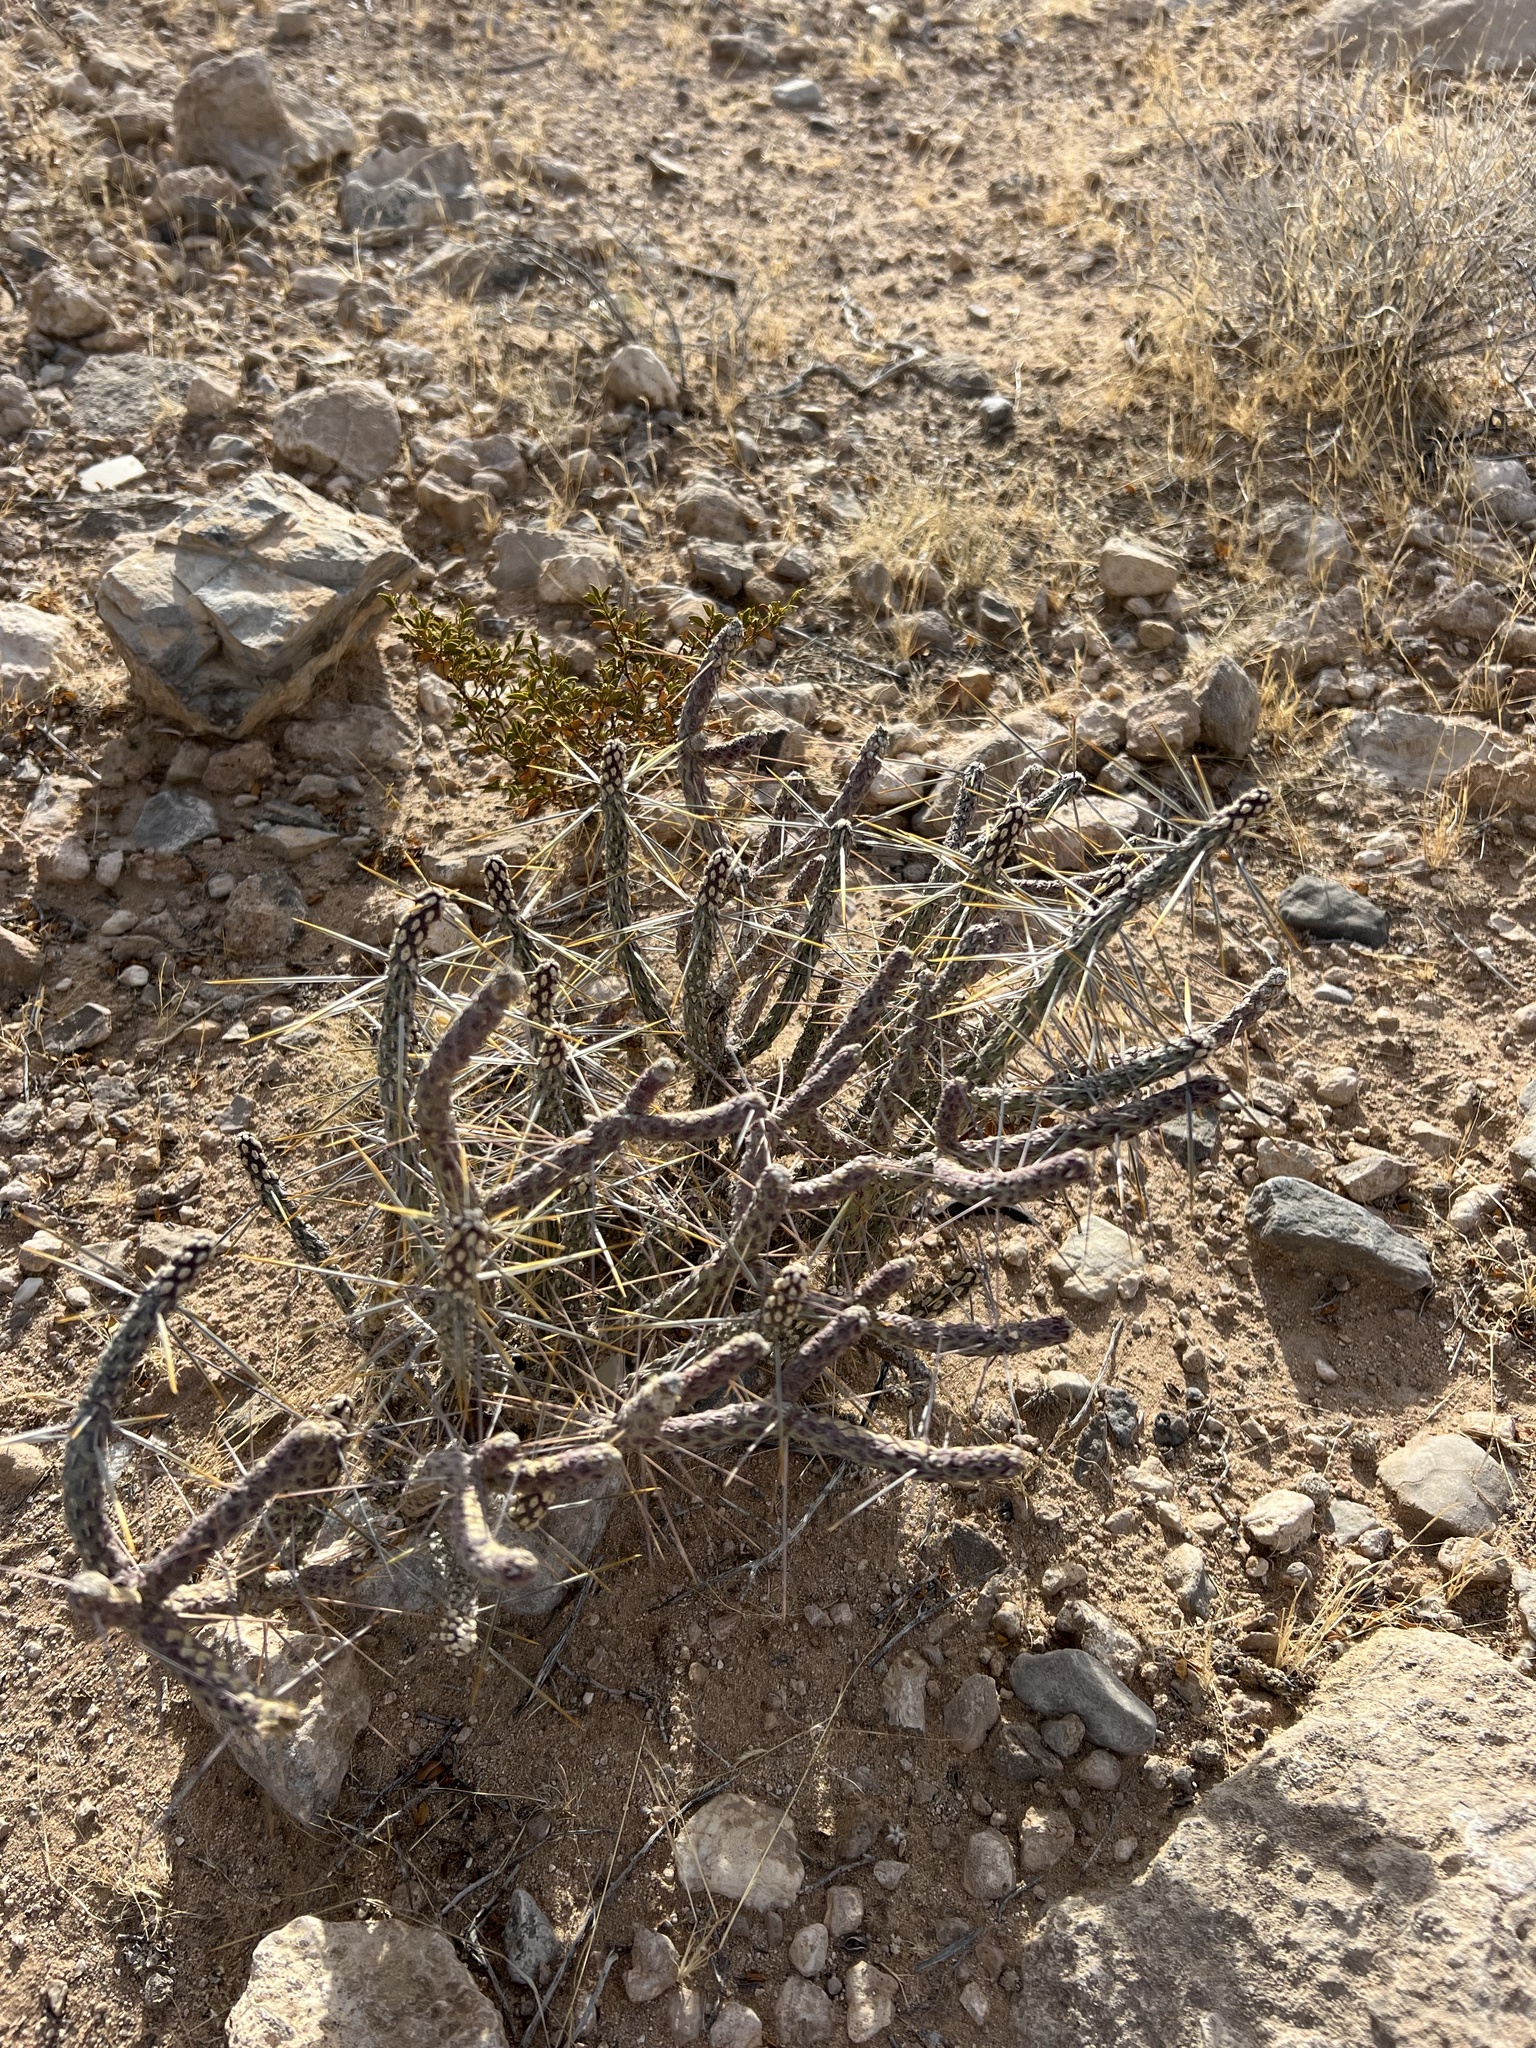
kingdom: Plantae
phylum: Tracheophyta
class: Magnoliopsida
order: Caryophyllales
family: Cactaceae
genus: Cylindropuntia
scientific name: Cylindropuntia ramosissima
